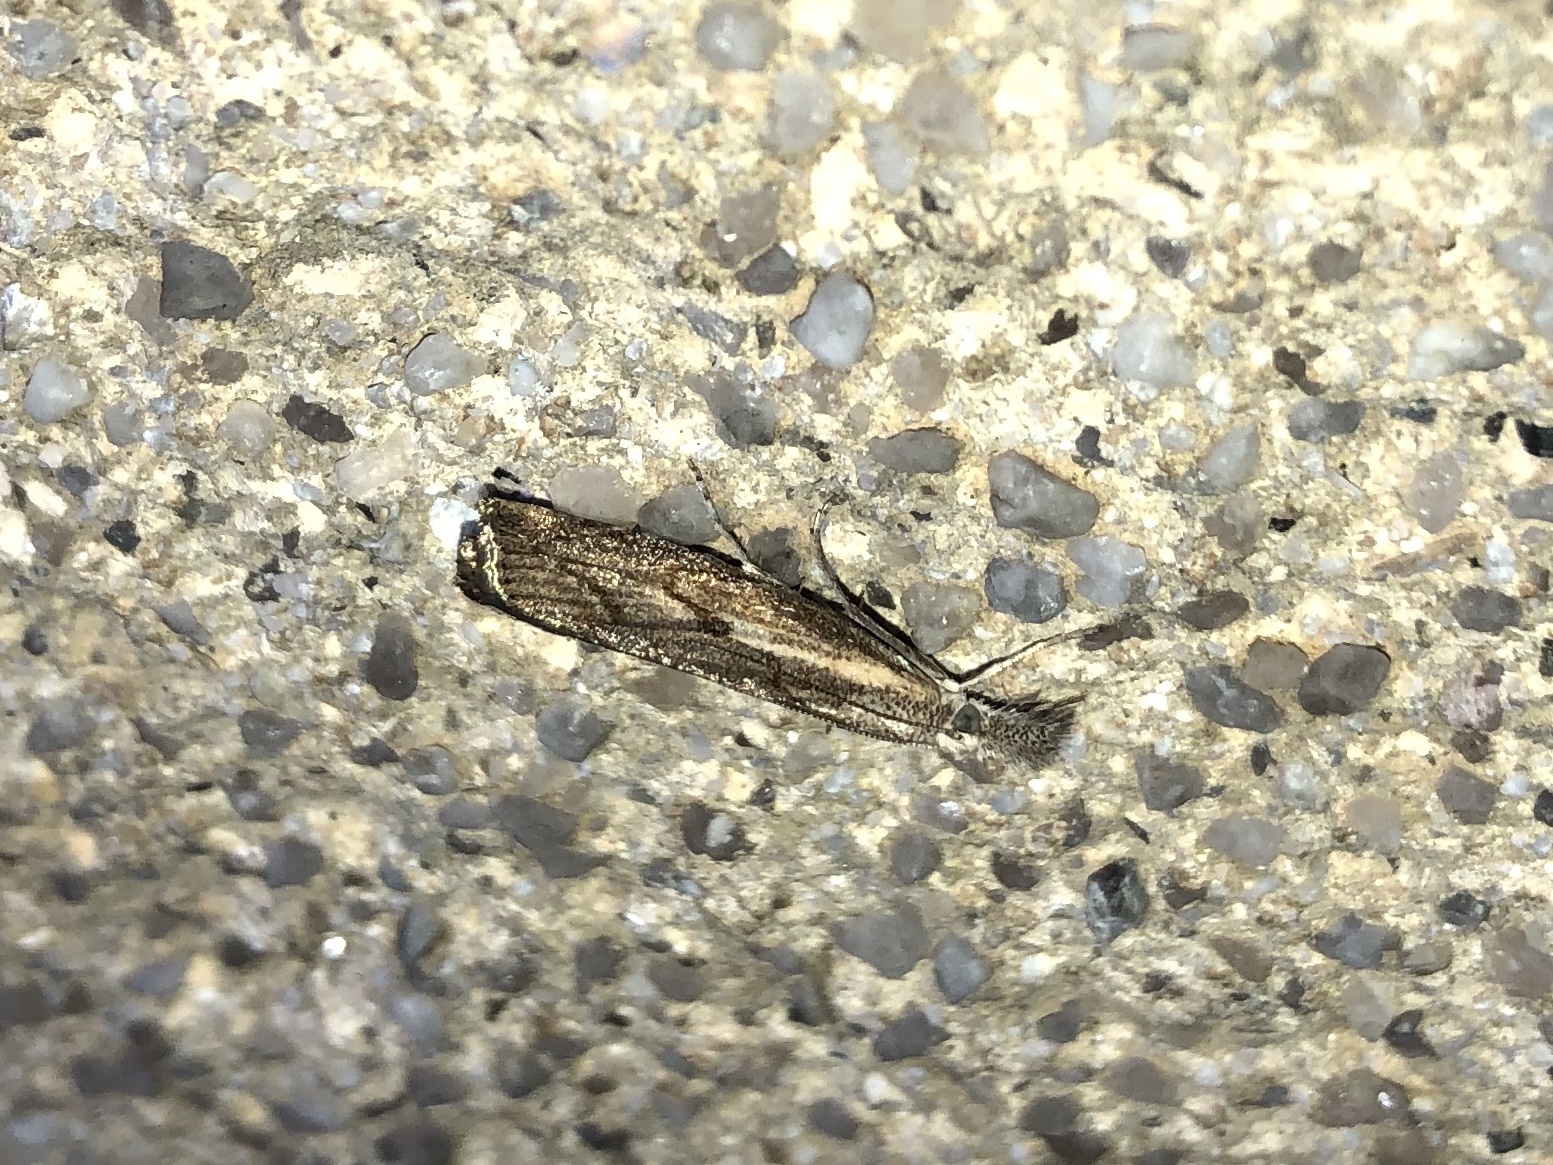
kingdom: Animalia
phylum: Arthropoda
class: Insecta
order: Lepidoptera
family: Crambidae
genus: Agriphila
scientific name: Agriphila geniculea
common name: Elbow-stripe grass-veneer
